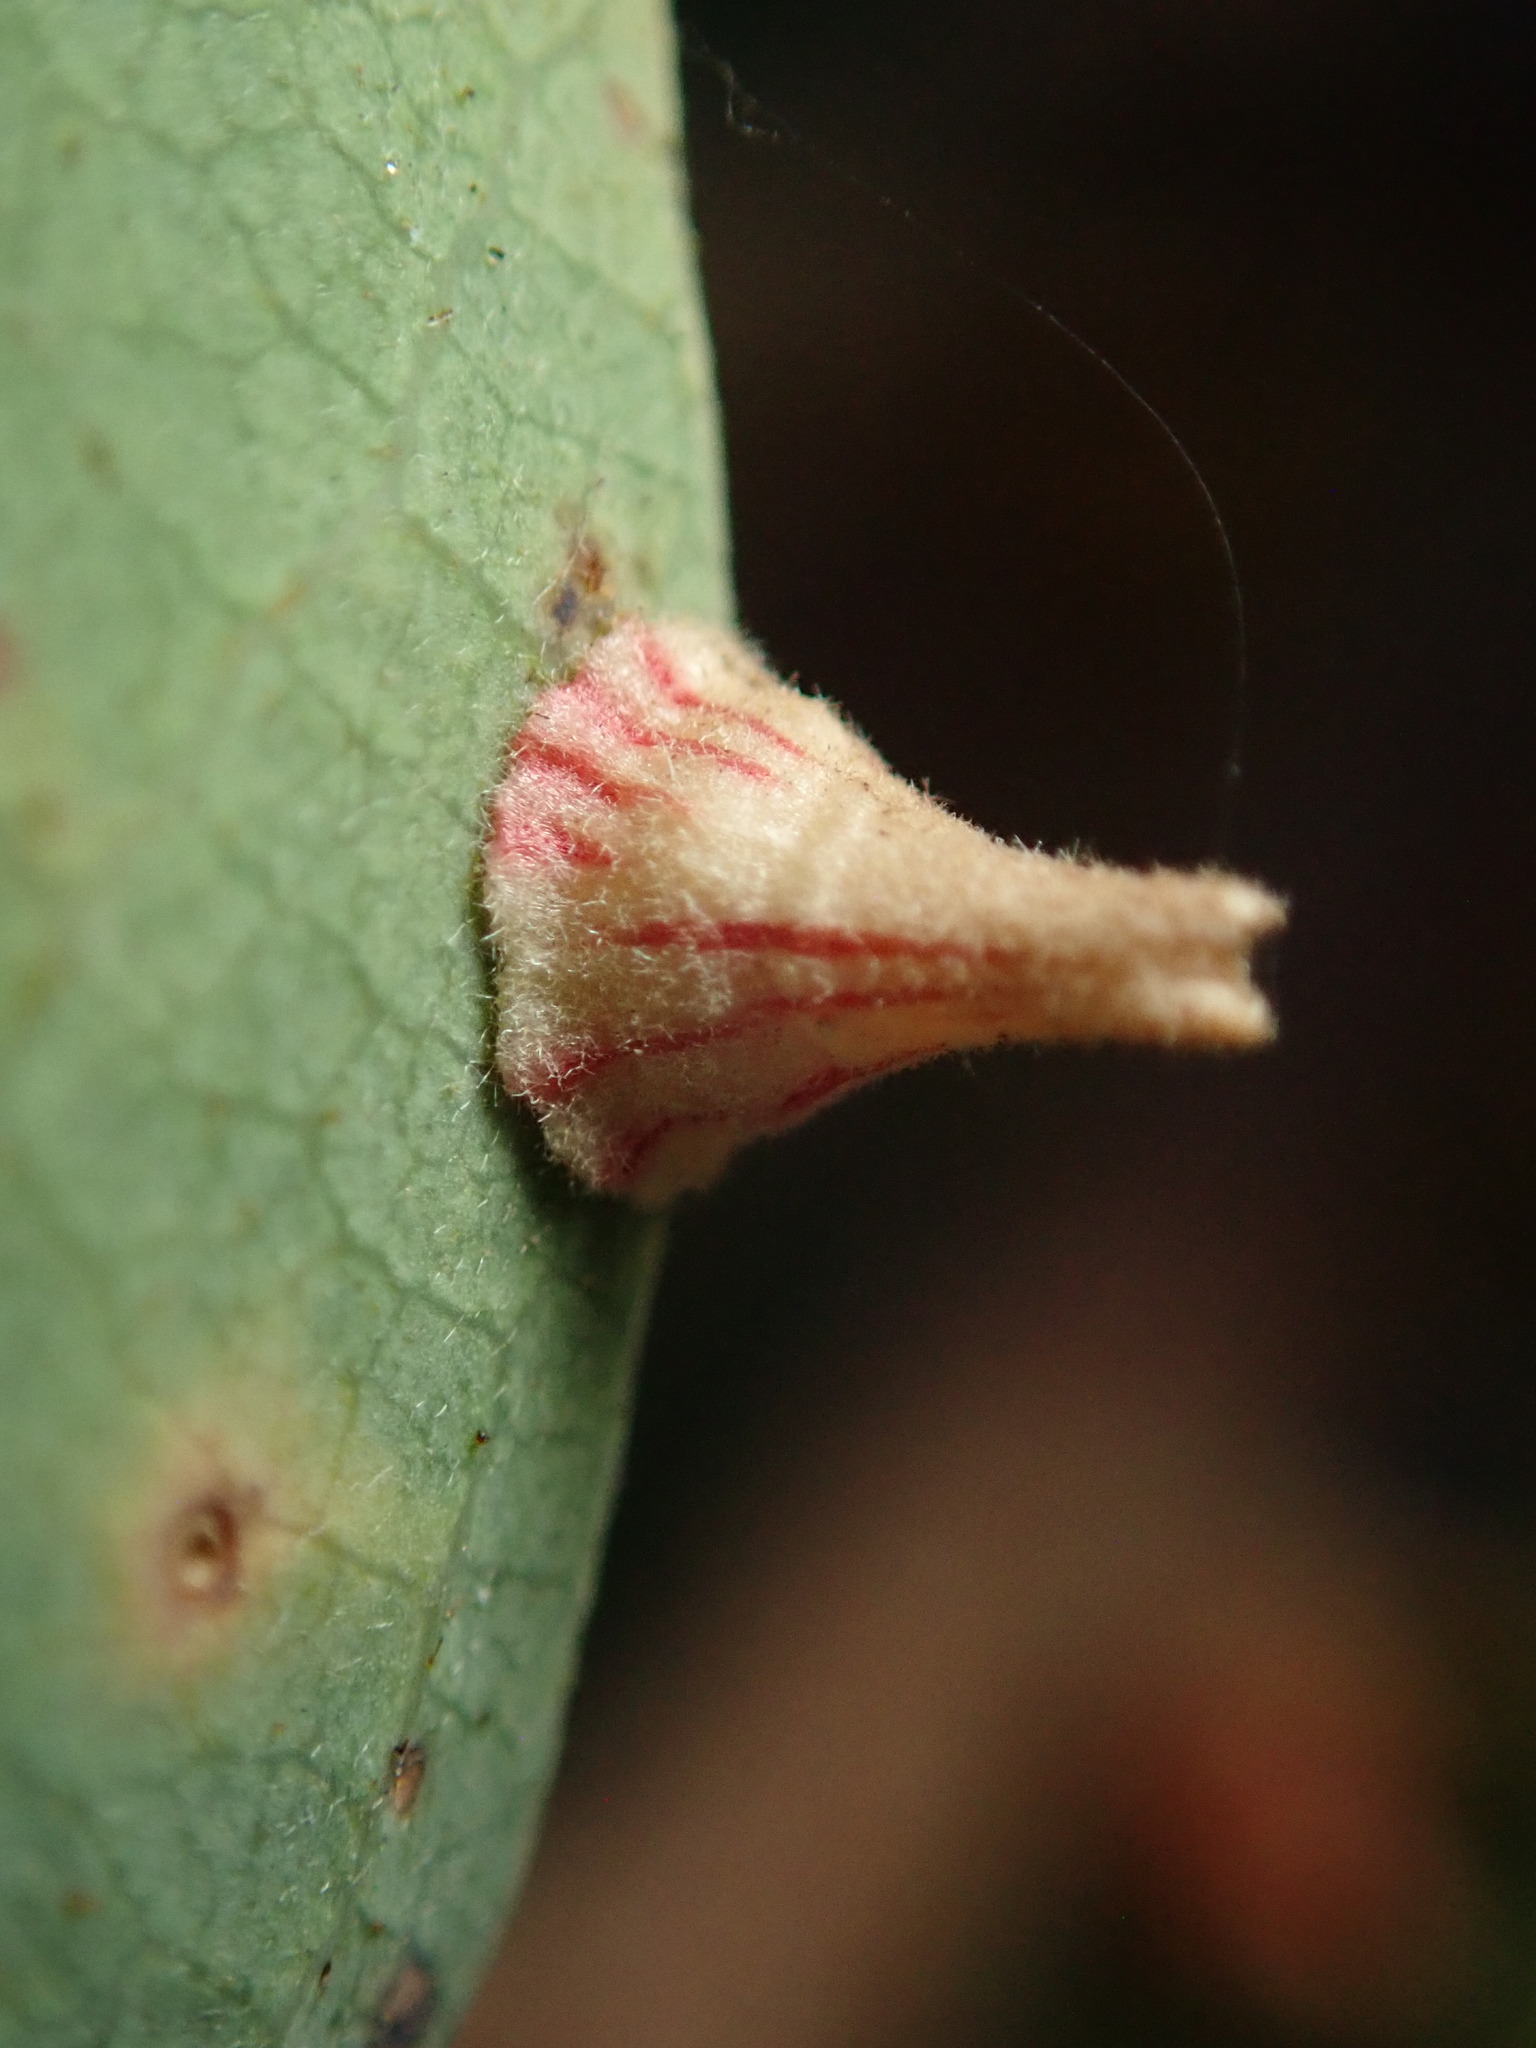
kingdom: Animalia
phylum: Arthropoda
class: Insecta
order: Hymenoptera
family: Cynipidae
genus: Andricus
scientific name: Andricus
